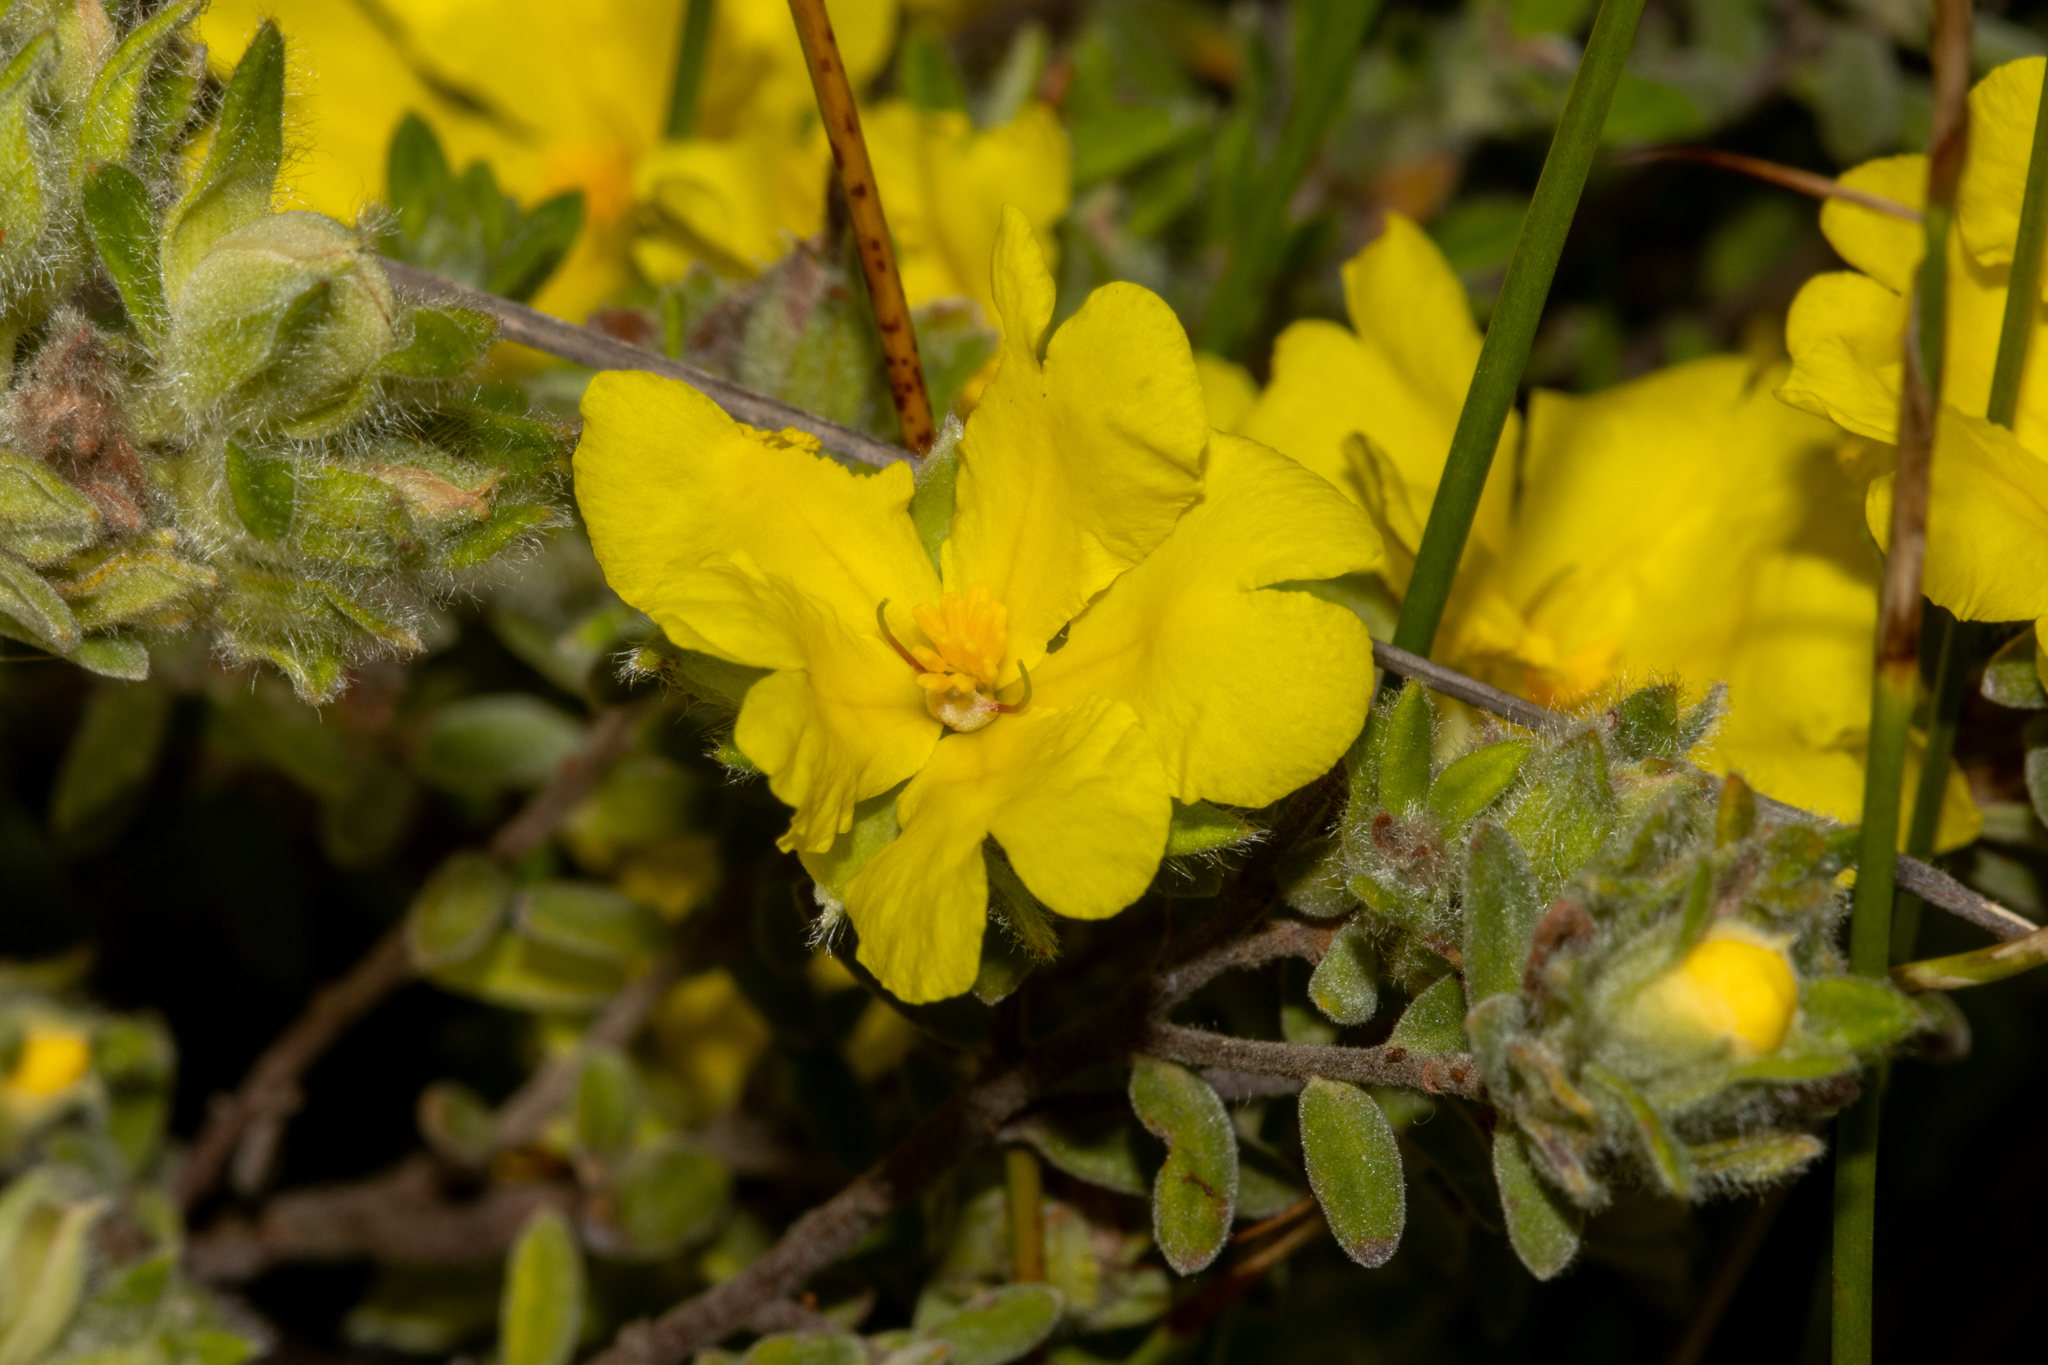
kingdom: Plantae
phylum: Tracheophyta
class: Magnoliopsida
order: Dilleniales
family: Dilleniaceae
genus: Hibbertia
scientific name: Hibbertia crinita
